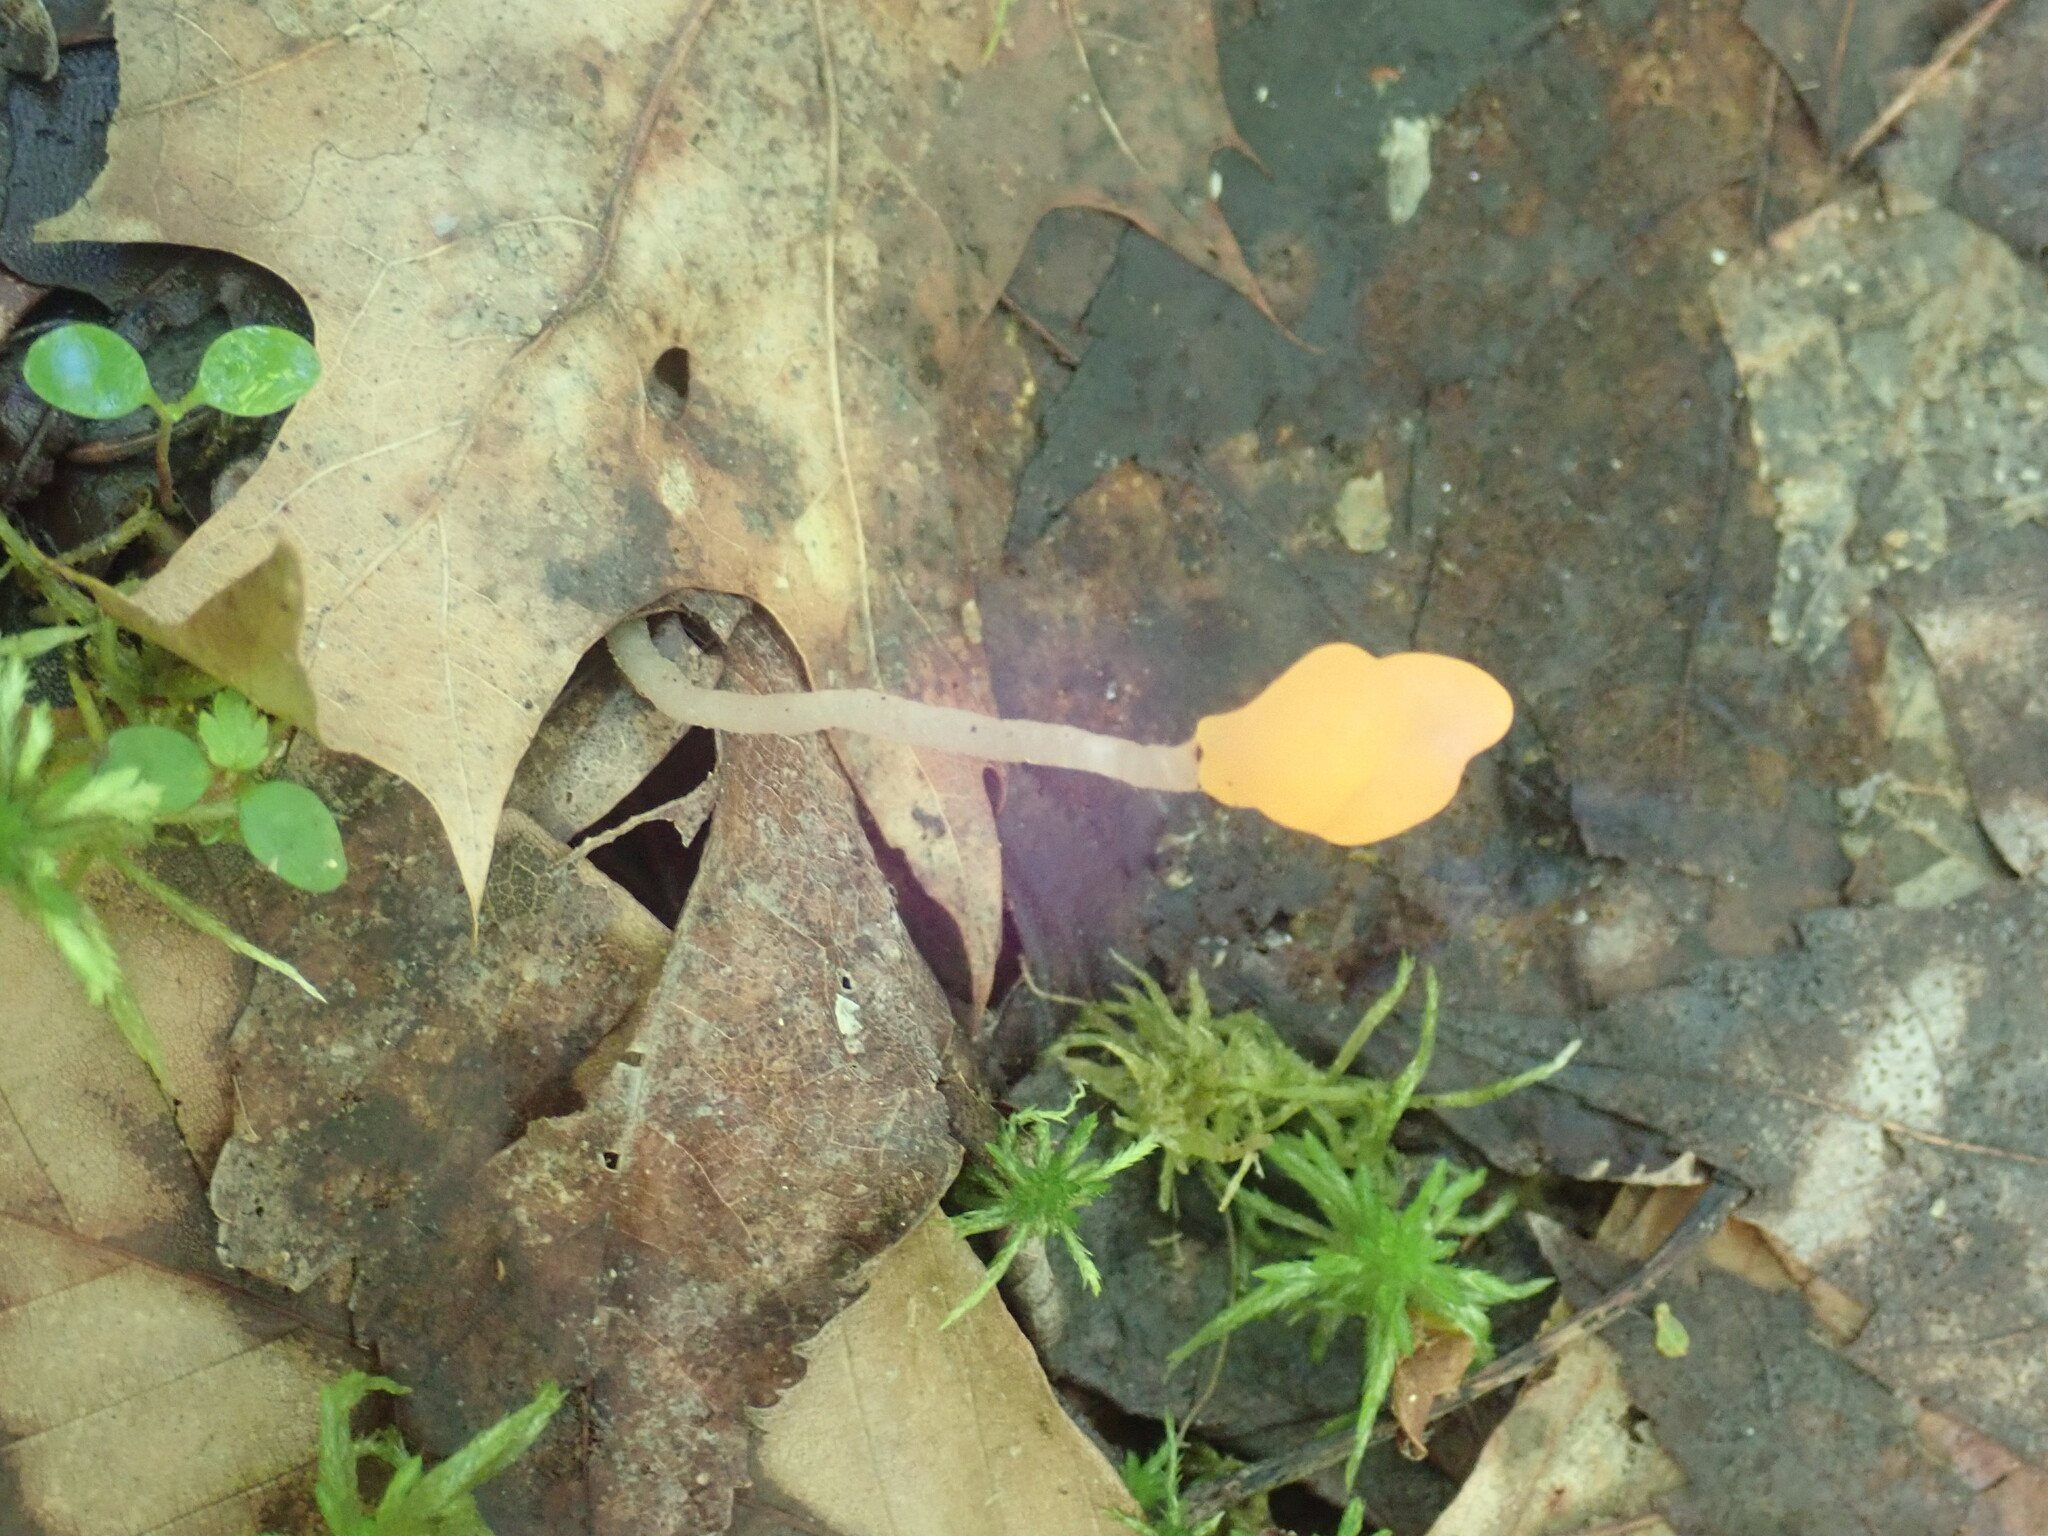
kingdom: Fungi
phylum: Ascomycota
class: Leotiomycetes
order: Helotiales
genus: Mitrula
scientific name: Mitrula
